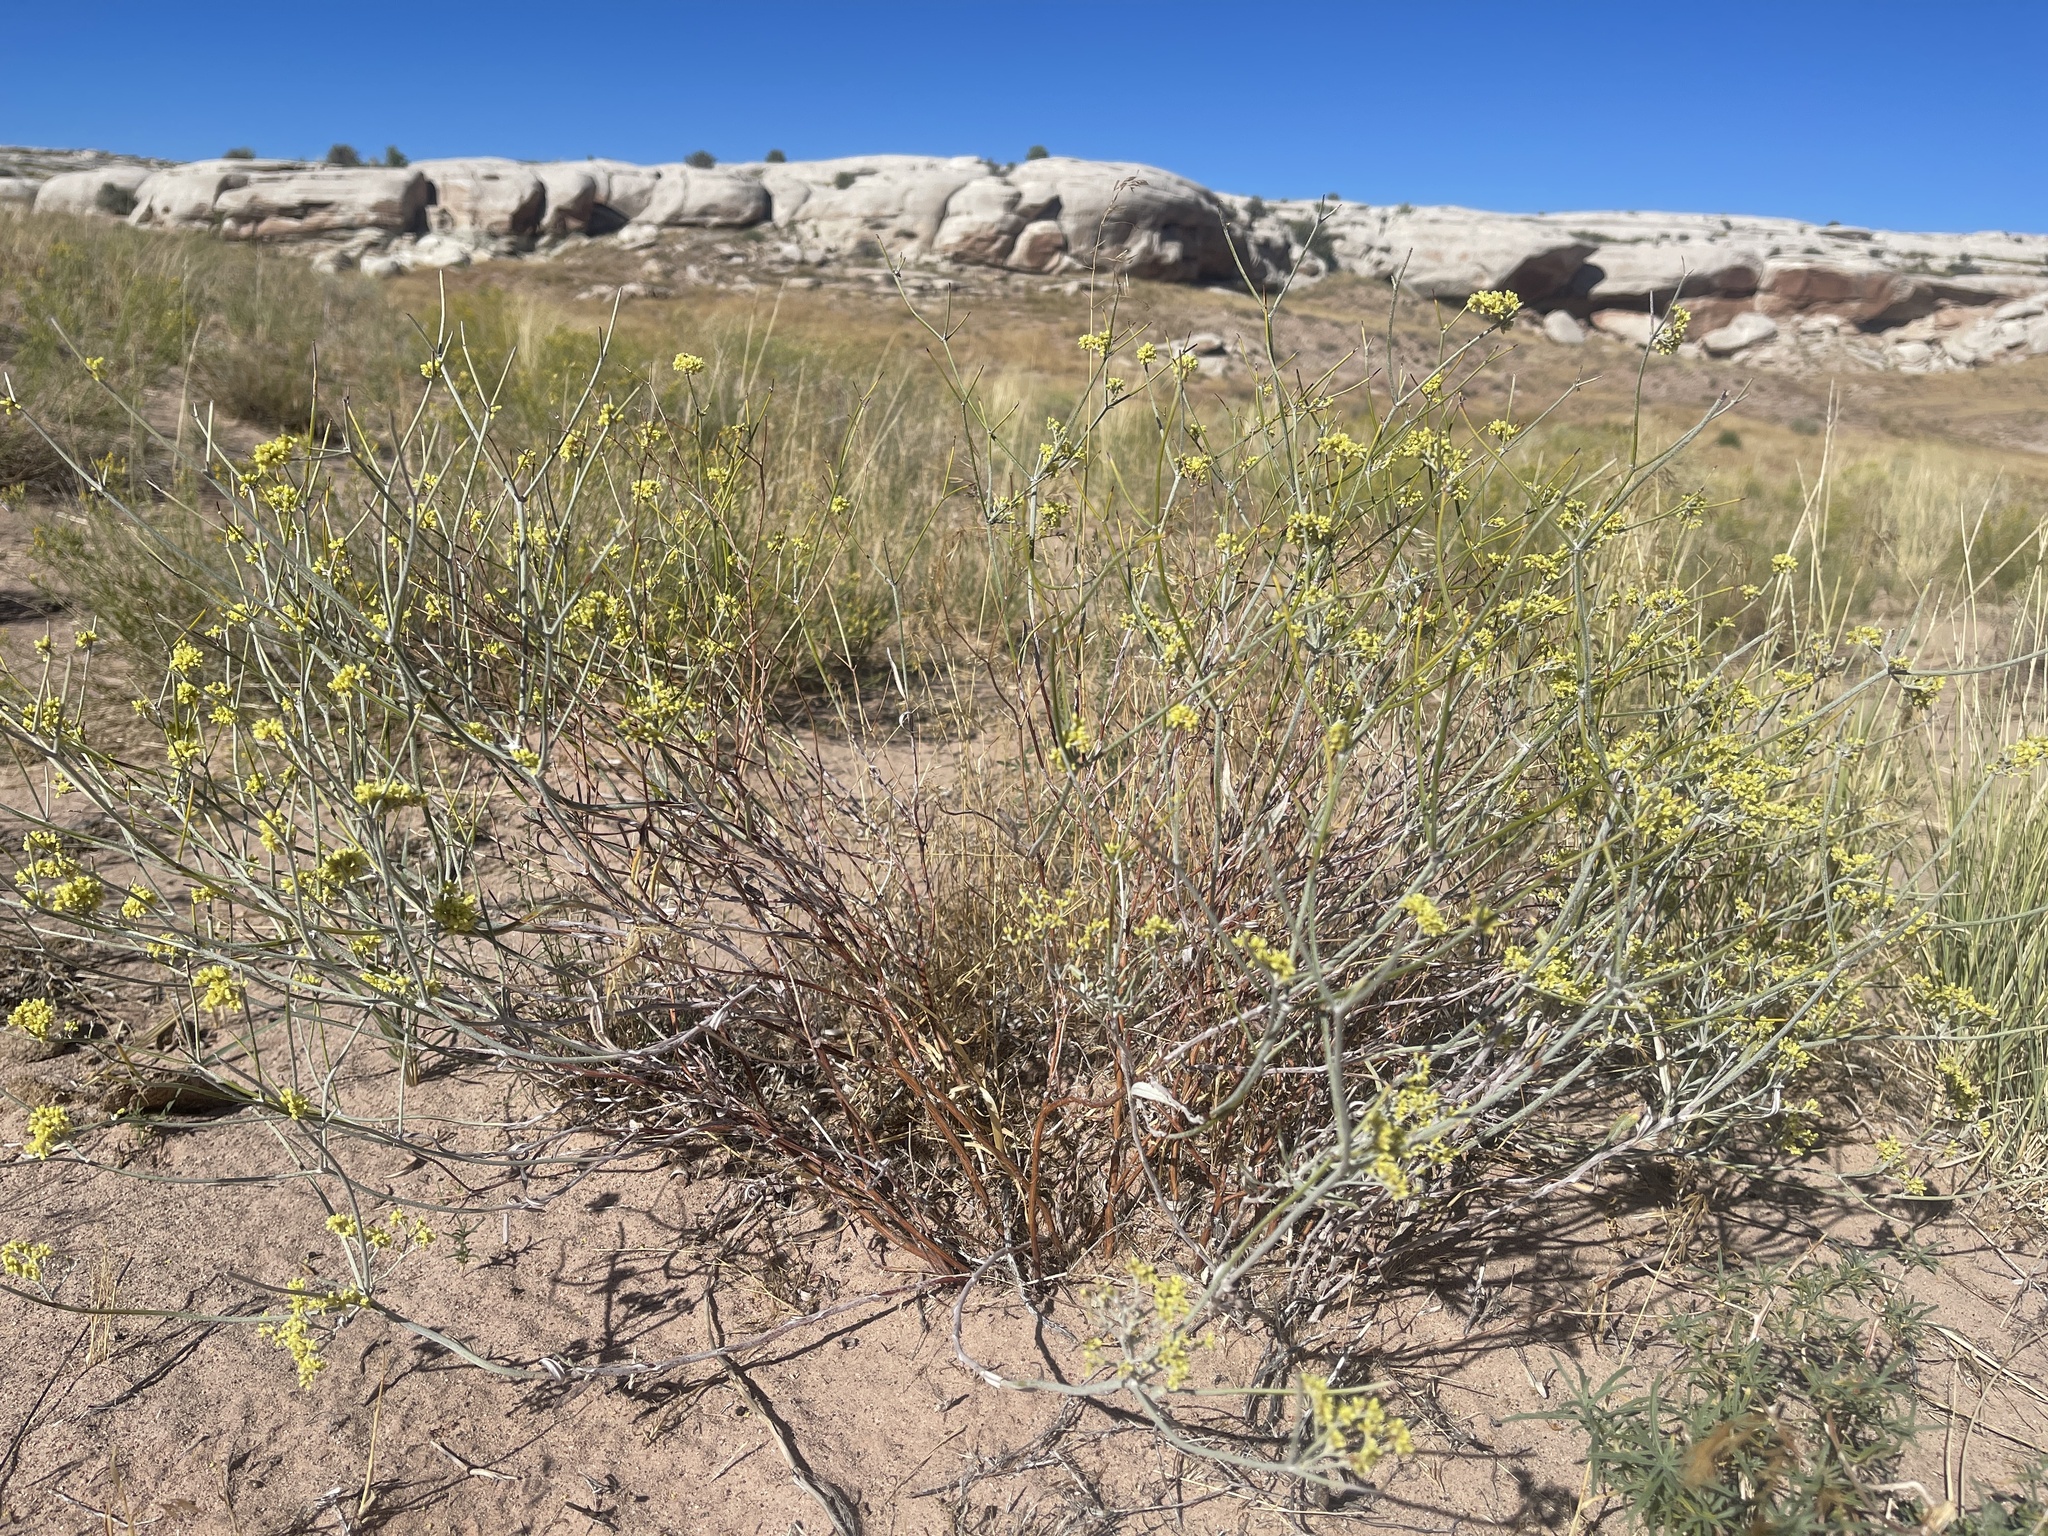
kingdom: Plantae
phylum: Tracheophyta
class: Magnoliopsida
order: Caryophyllales
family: Polygonaceae
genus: Eriogonum
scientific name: Eriogonum leptocladon
